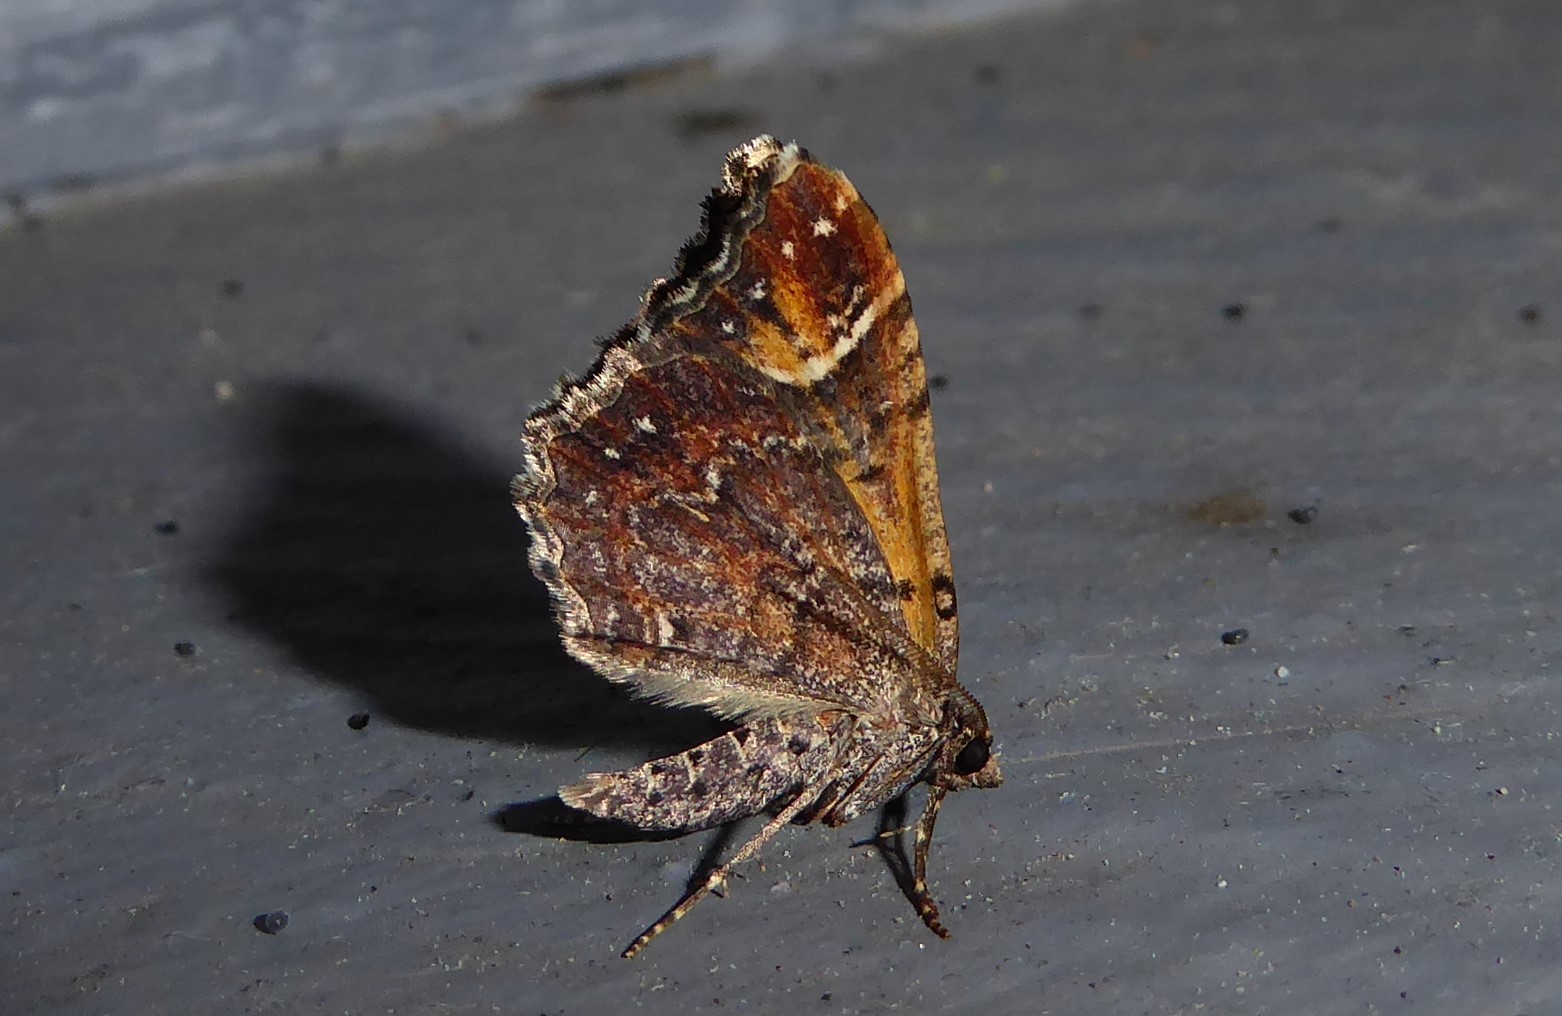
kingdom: Animalia
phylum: Arthropoda
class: Insecta
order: Lepidoptera
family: Geometridae
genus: Asaphodes
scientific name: Asaphodes chlamydota
